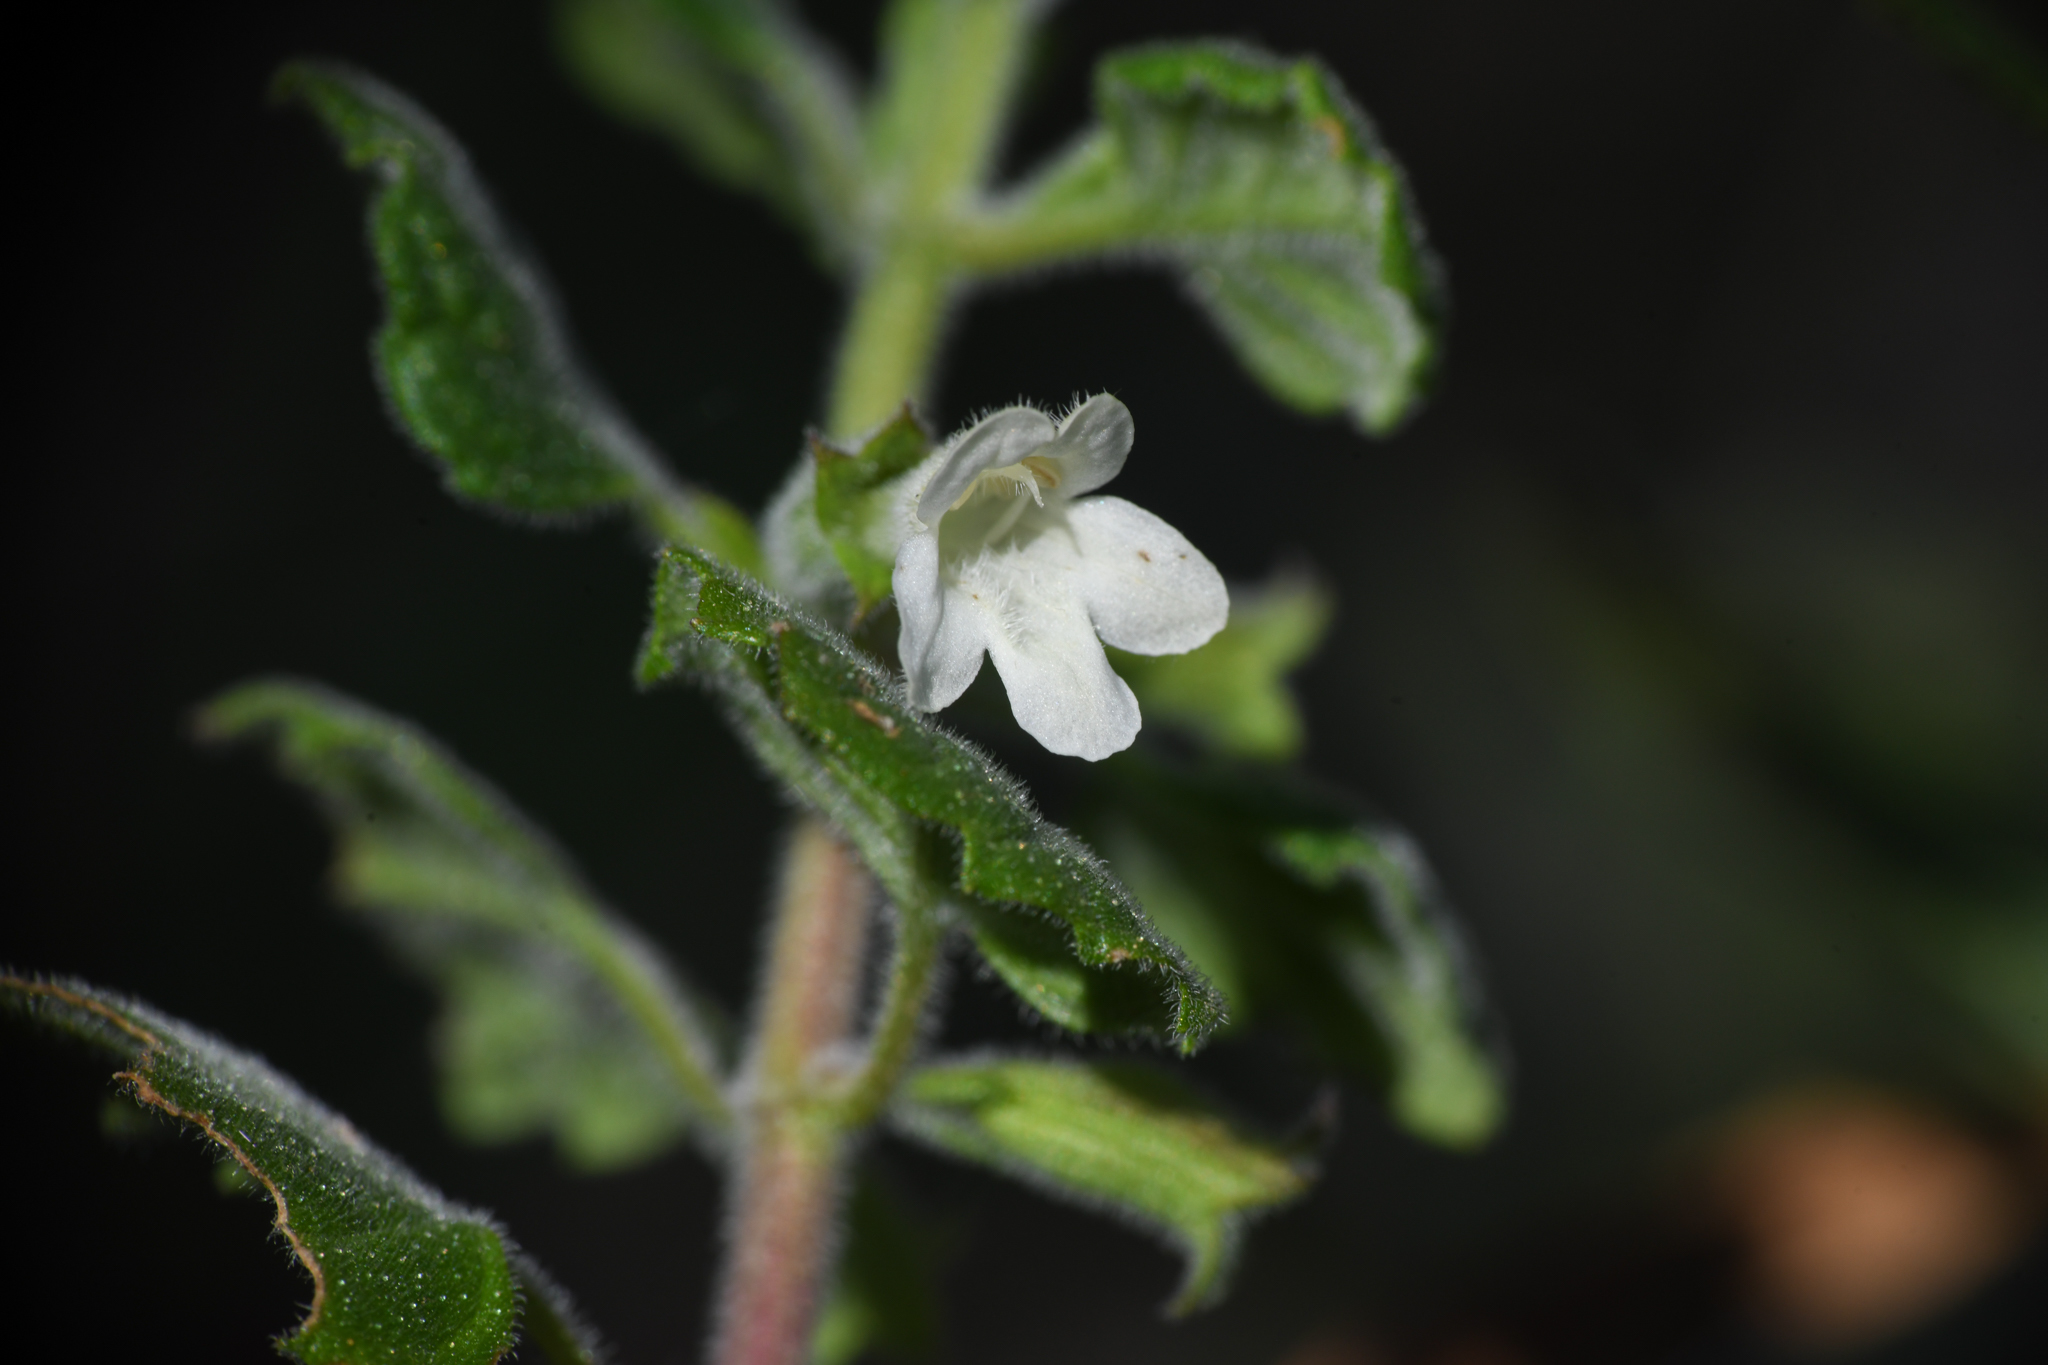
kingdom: Plantae
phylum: Tracheophyta
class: Magnoliopsida
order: Lamiales
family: Lamiaceae
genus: Clinopodium
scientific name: Clinopodium chandleri
